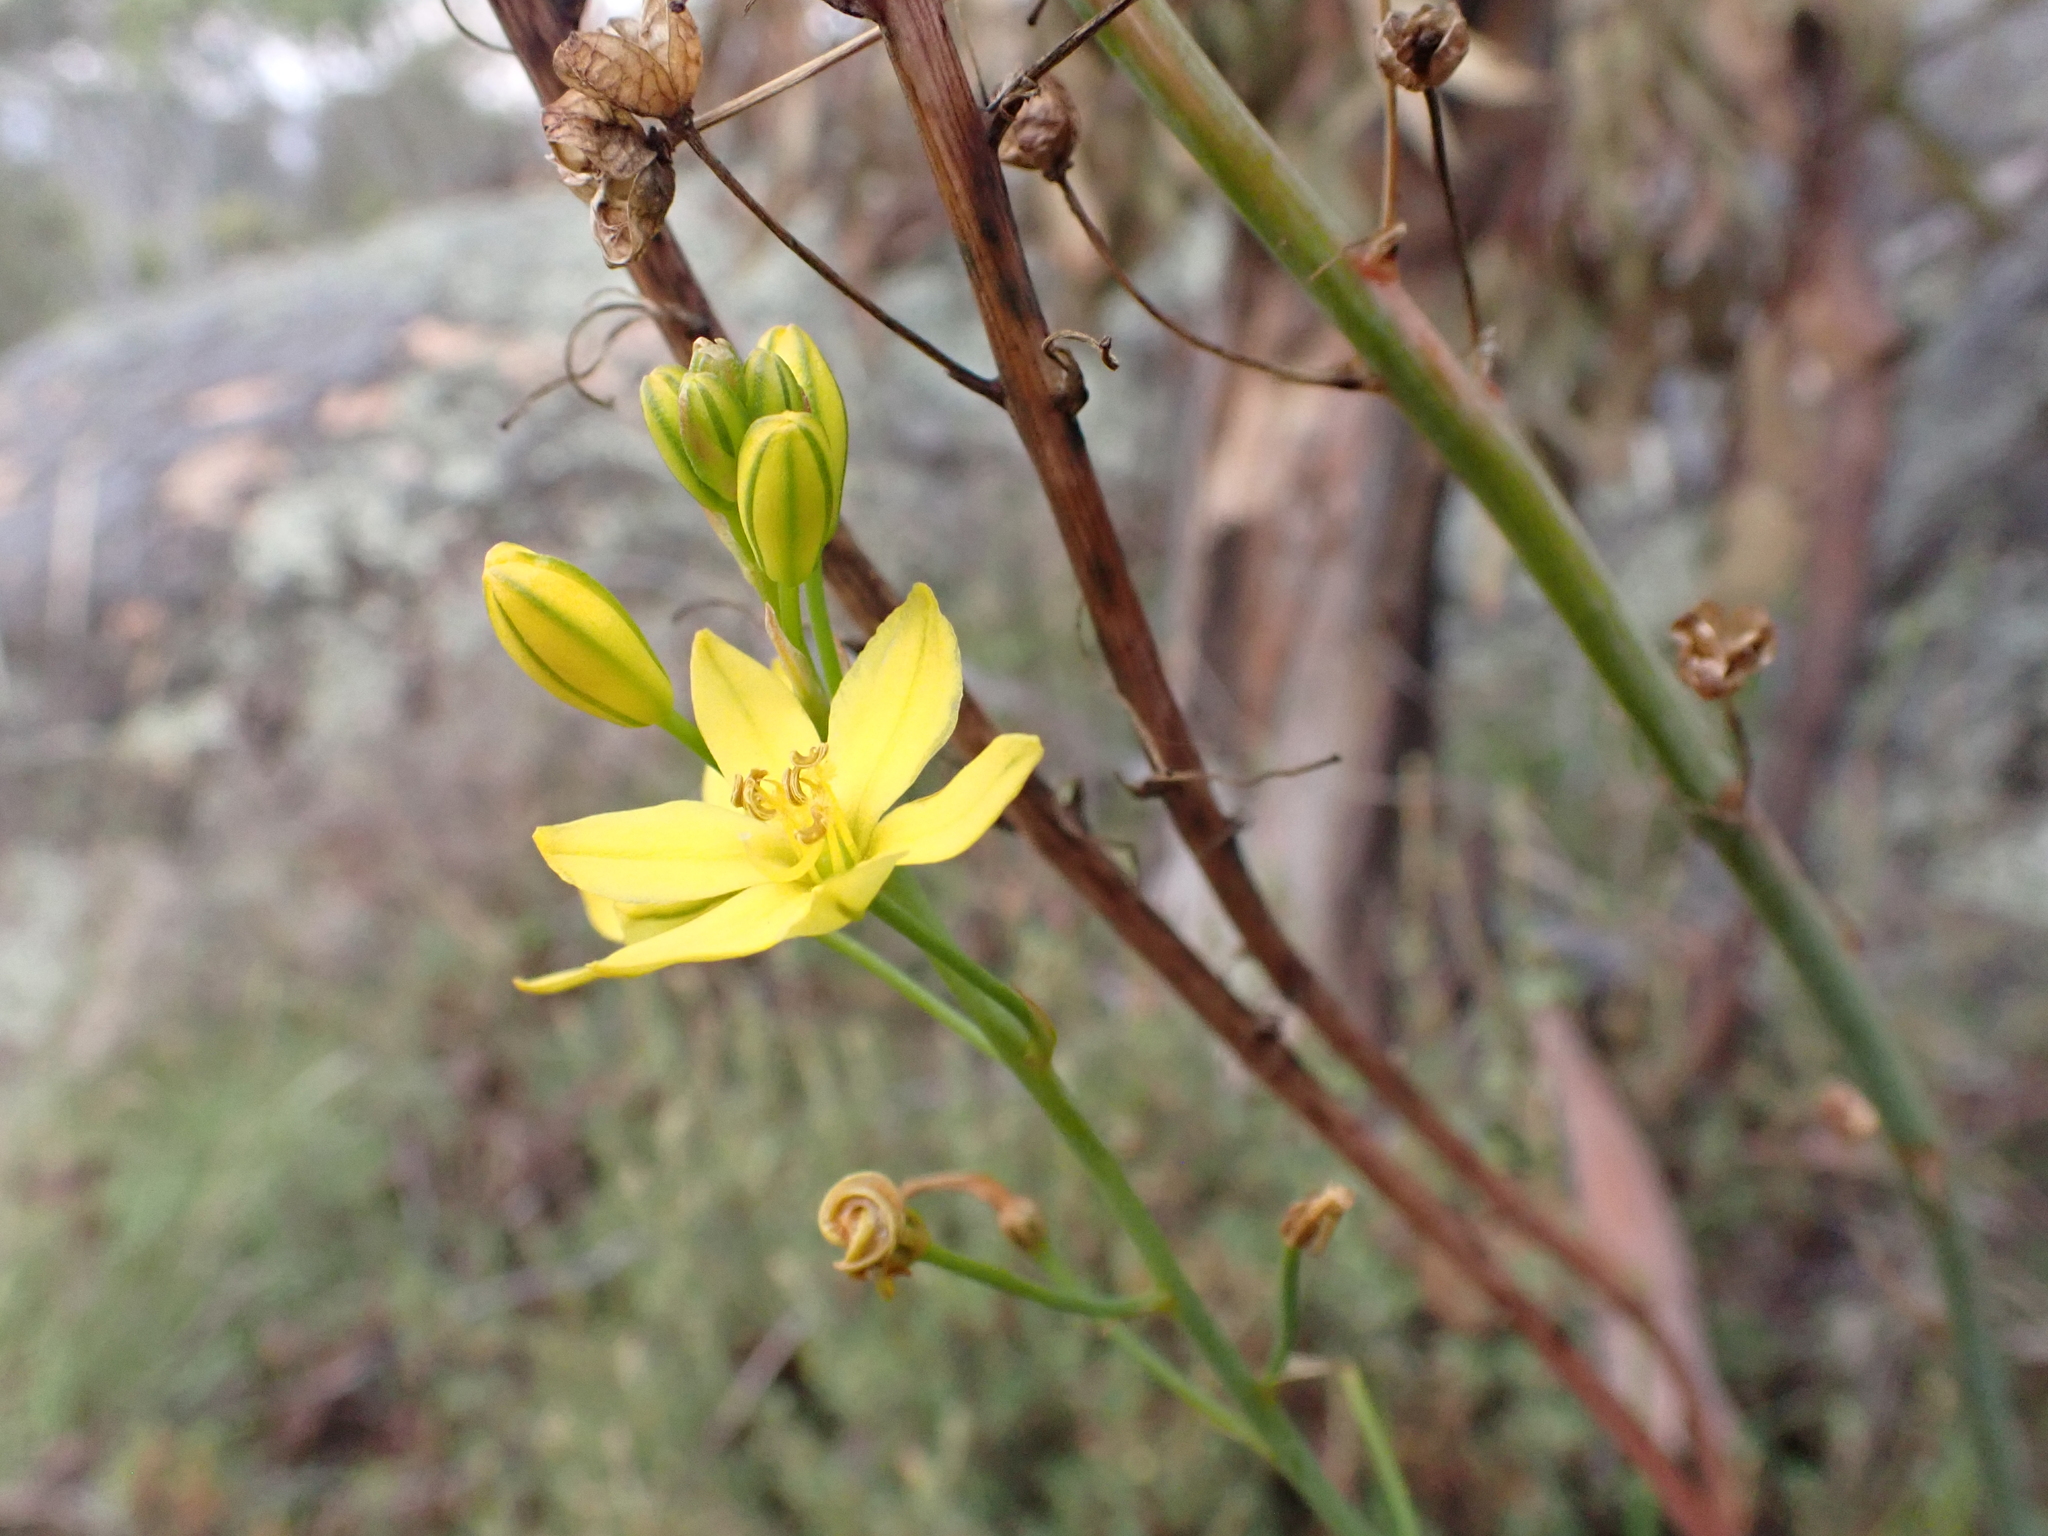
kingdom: Plantae
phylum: Tracheophyta
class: Liliopsida
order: Asparagales
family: Asphodelaceae
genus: Bulbine
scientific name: Bulbine glauca
